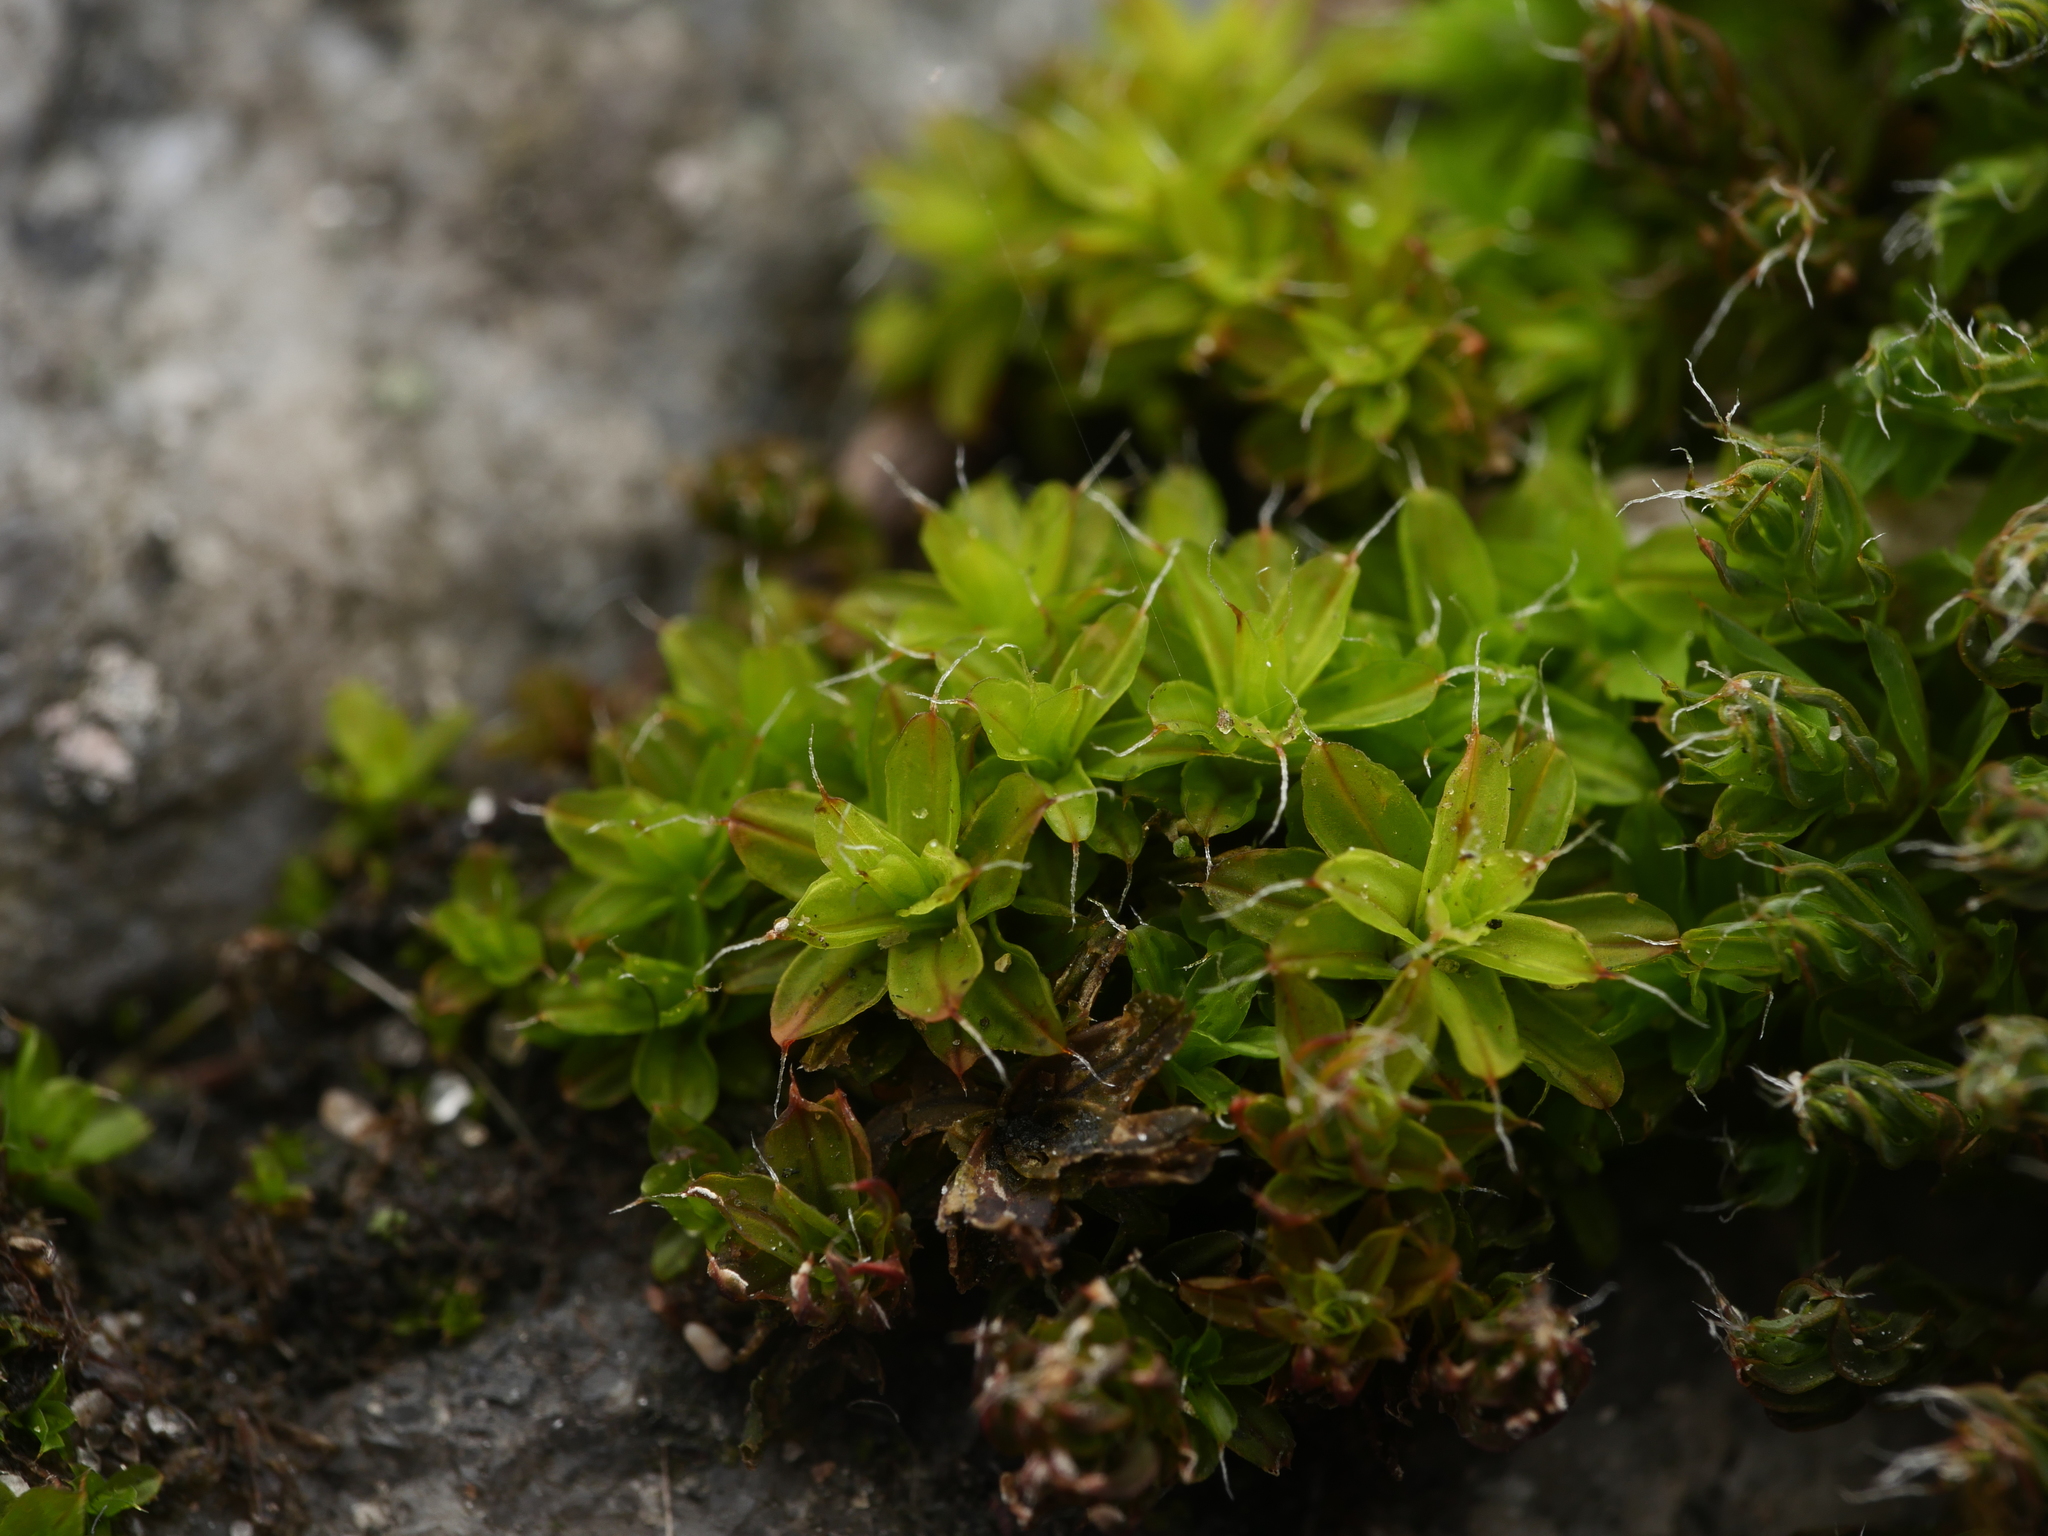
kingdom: Plantae
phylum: Bryophyta
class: Bryopsida
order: Pottiales
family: Pottiaceae
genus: Syntrichia
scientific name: Syntrichia ruralis
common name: Sidewalk screw moss
